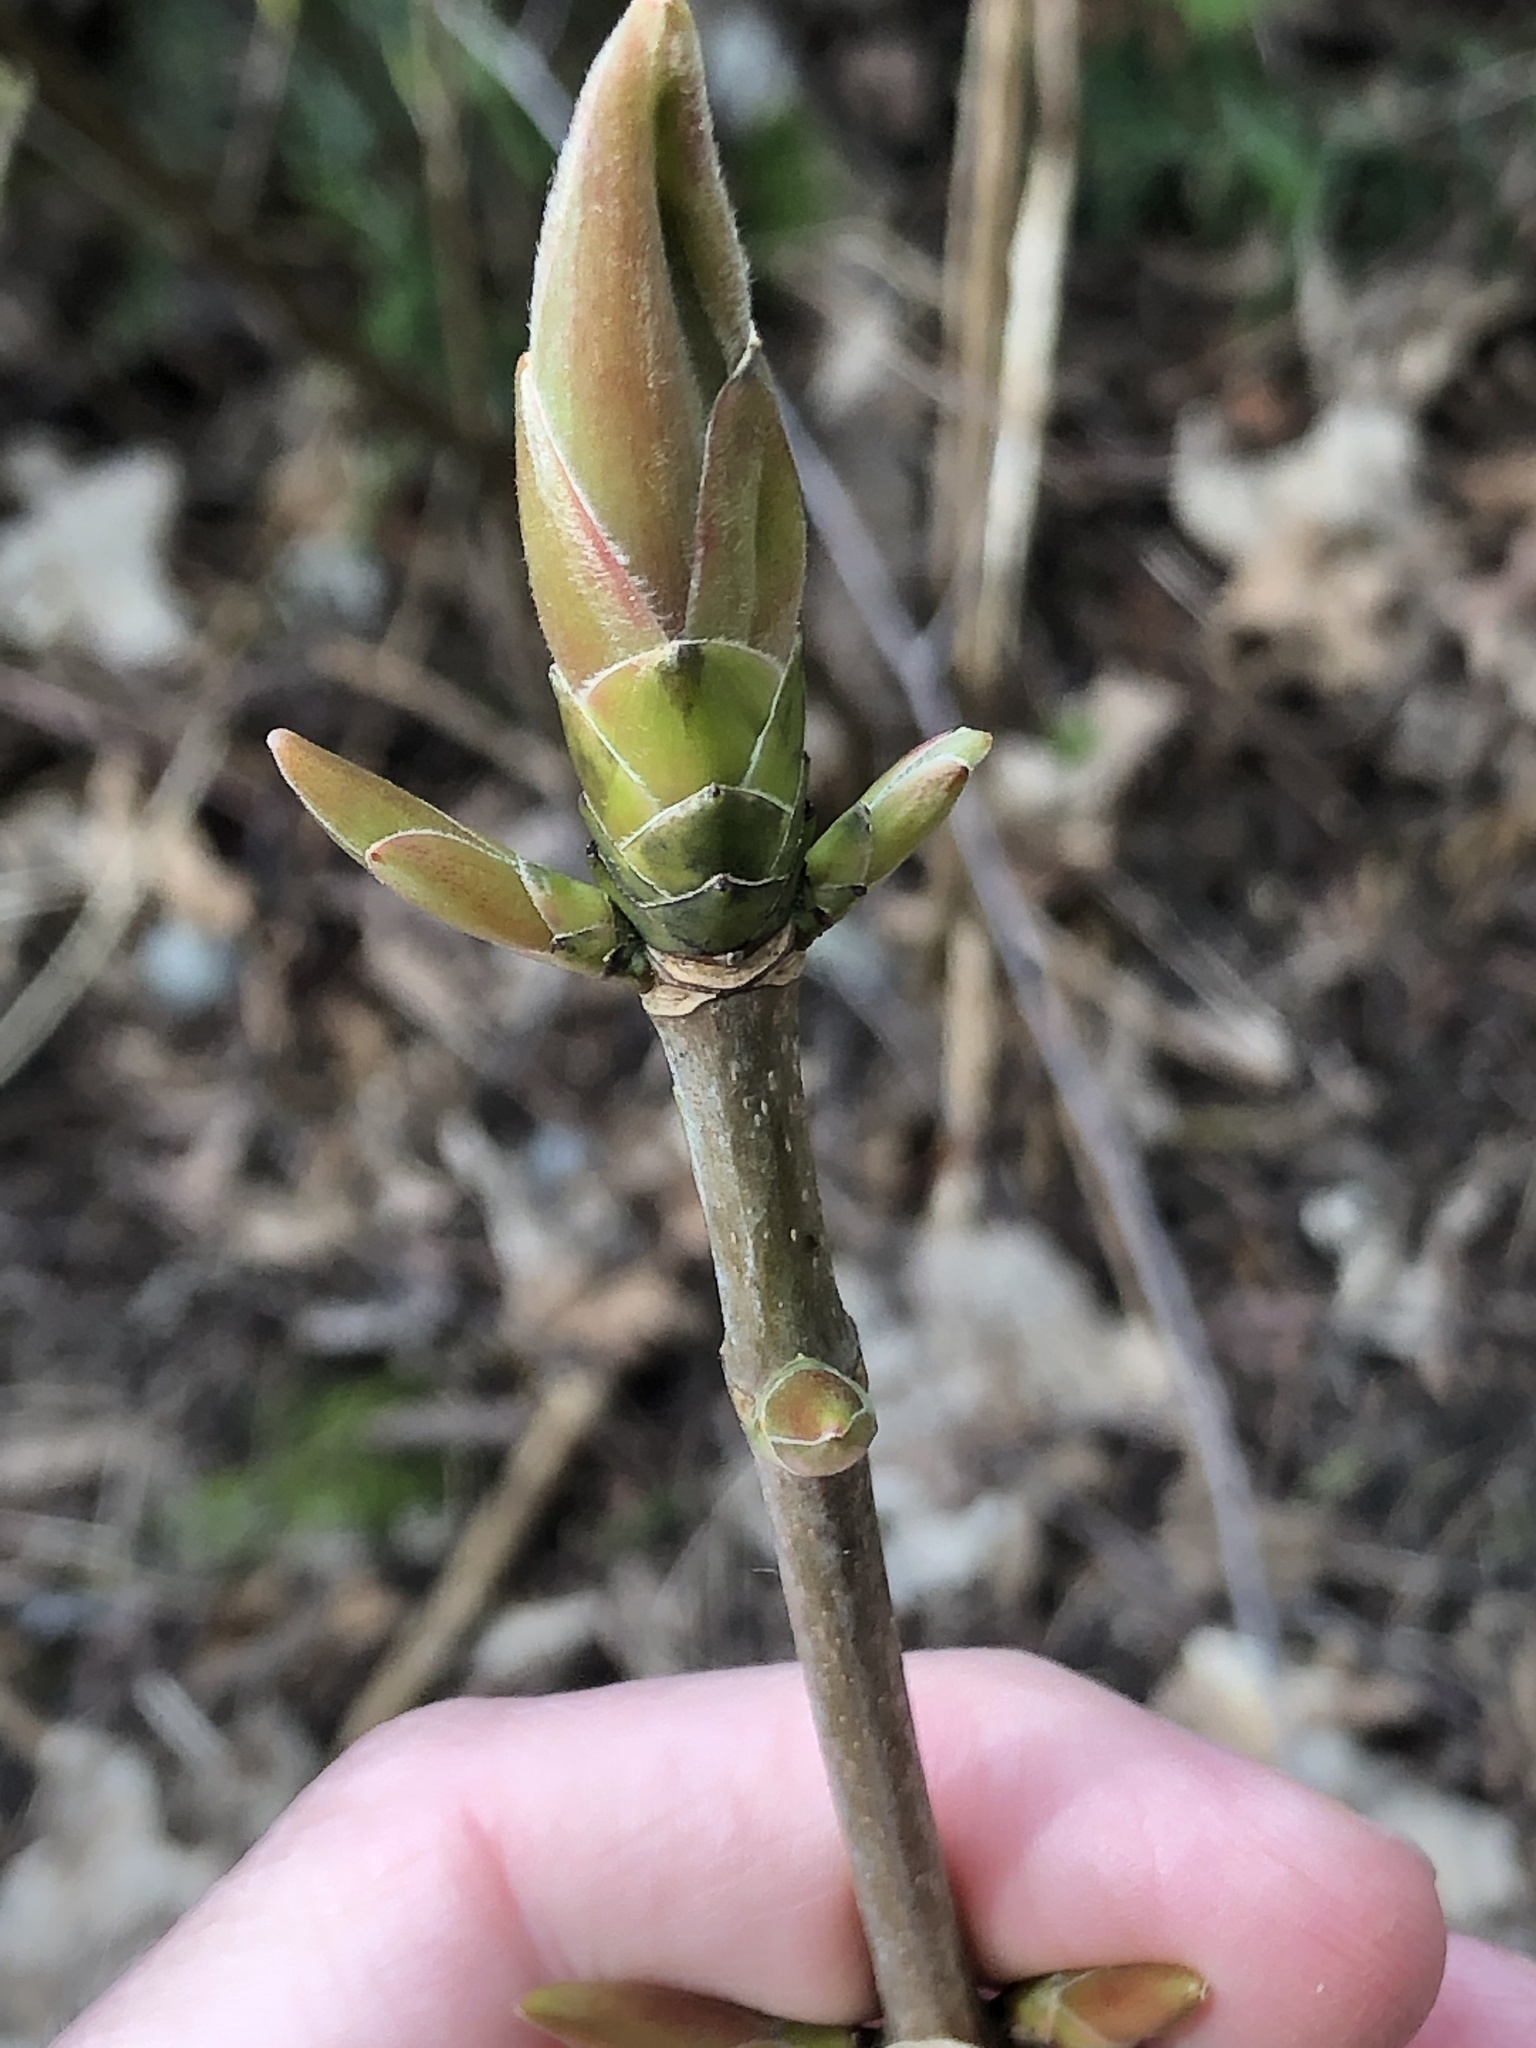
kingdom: Plantae
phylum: Tracheophyta
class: Magnoliopsida
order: Sapindales
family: Sapindaceae
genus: Acer
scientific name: Acer pseudoplatanus
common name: Sycamore
